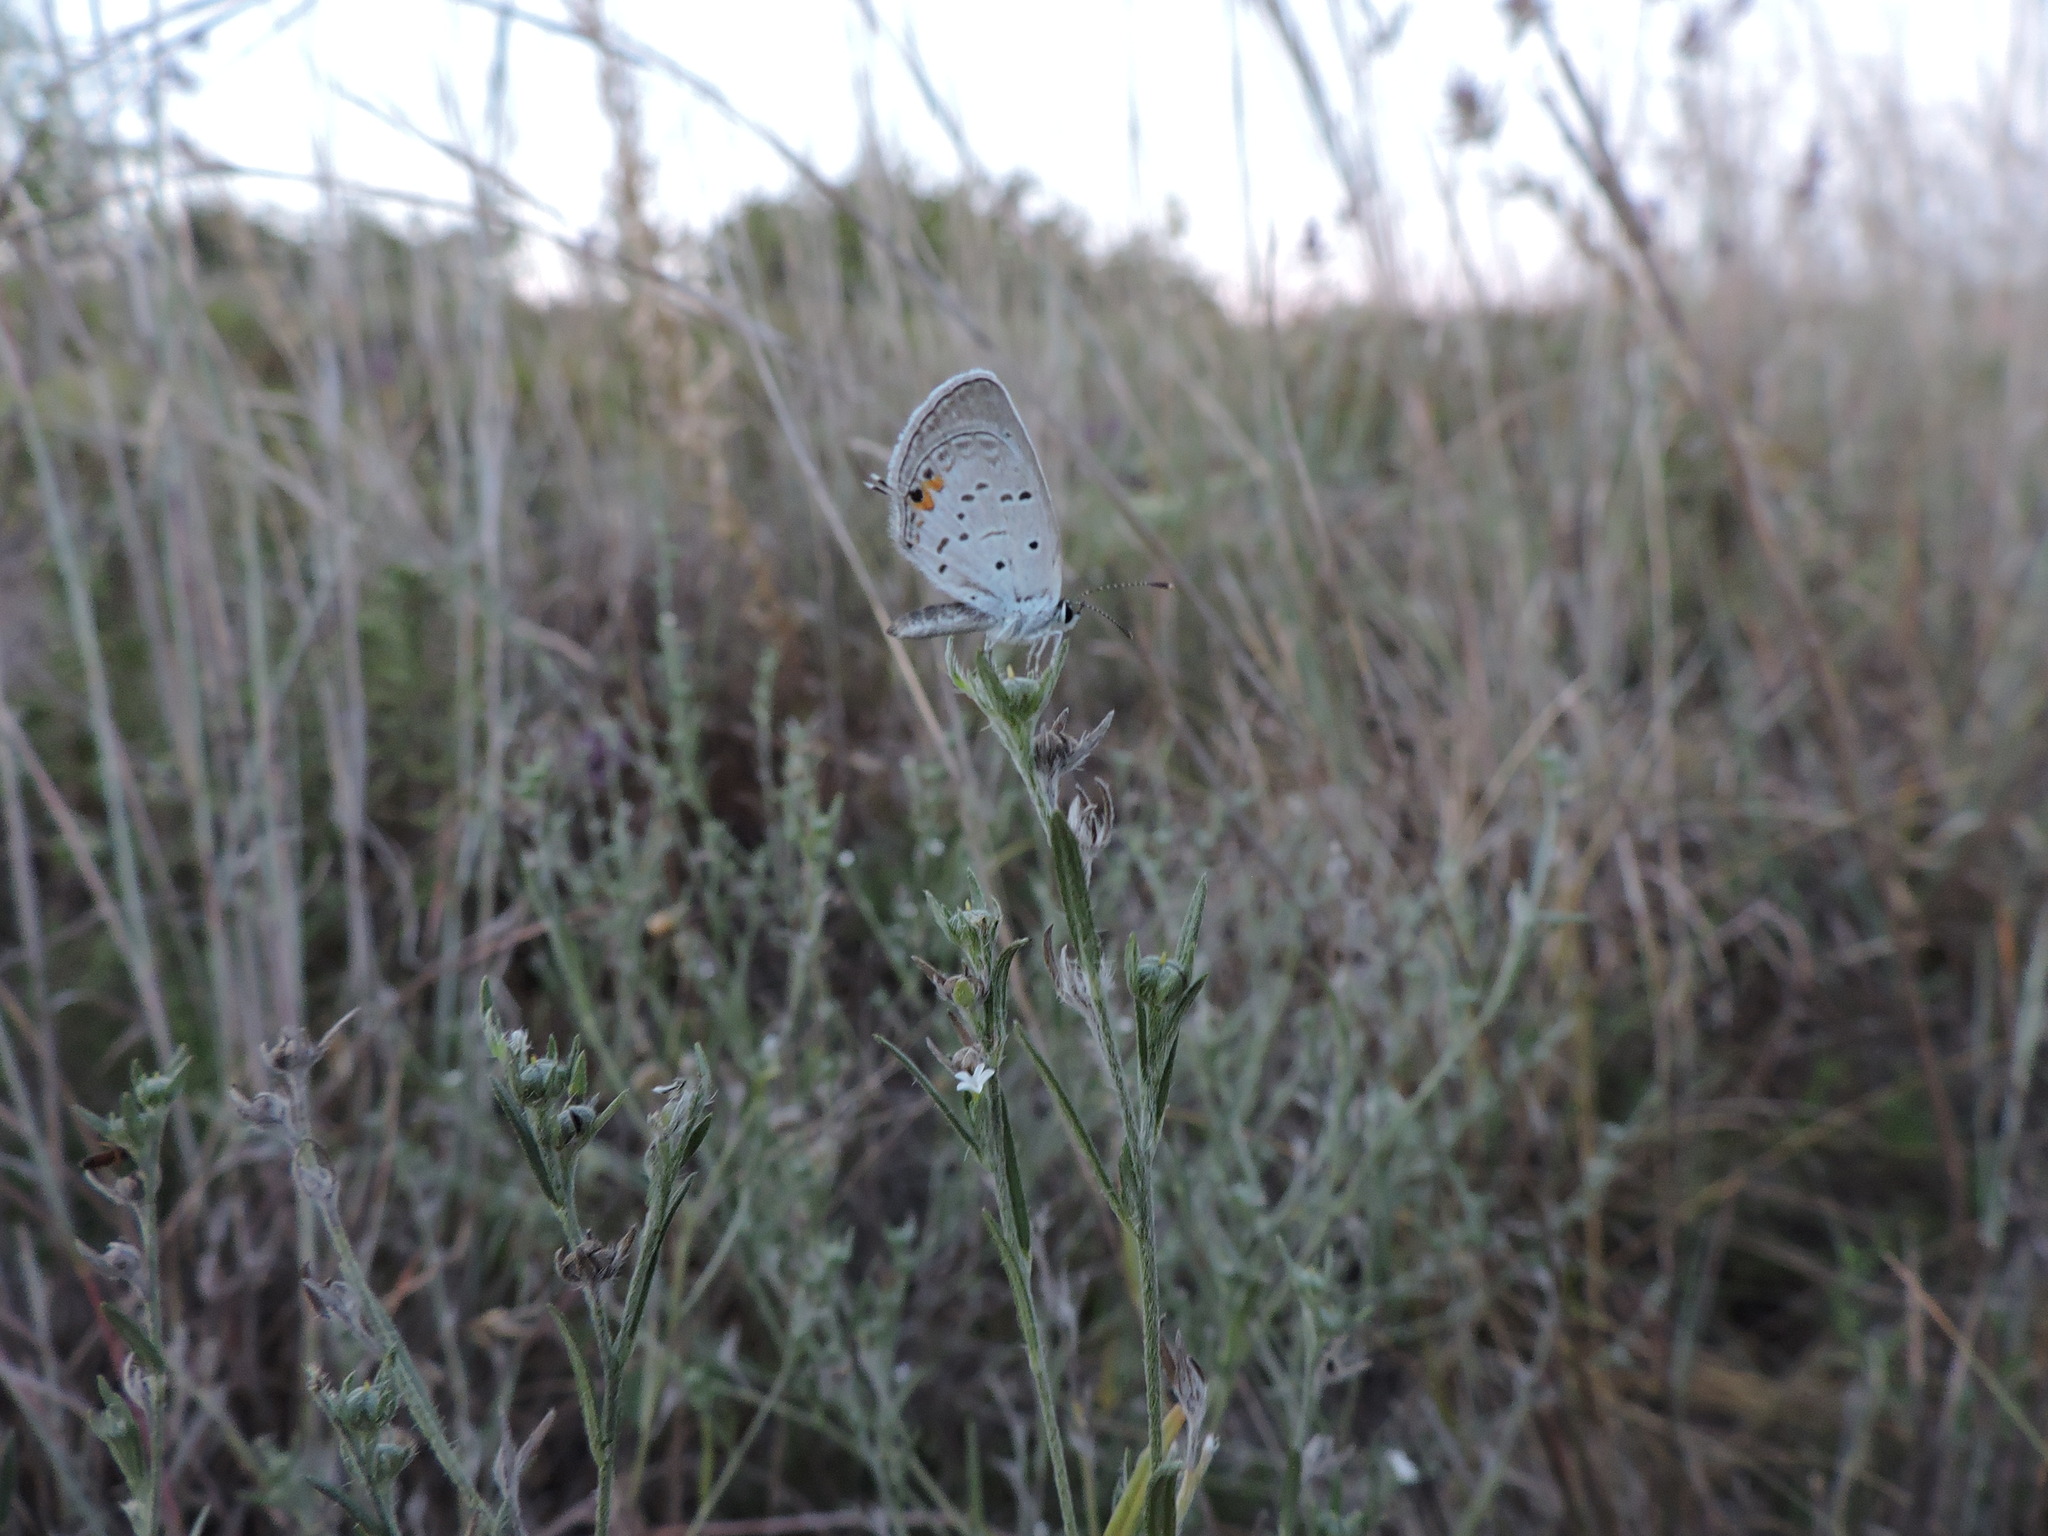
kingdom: Animalia
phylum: Arthropoda
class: Insecta
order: Lepidoptera
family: Lycaenidae
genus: Elkalyce
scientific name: Elkalyce comyntas
